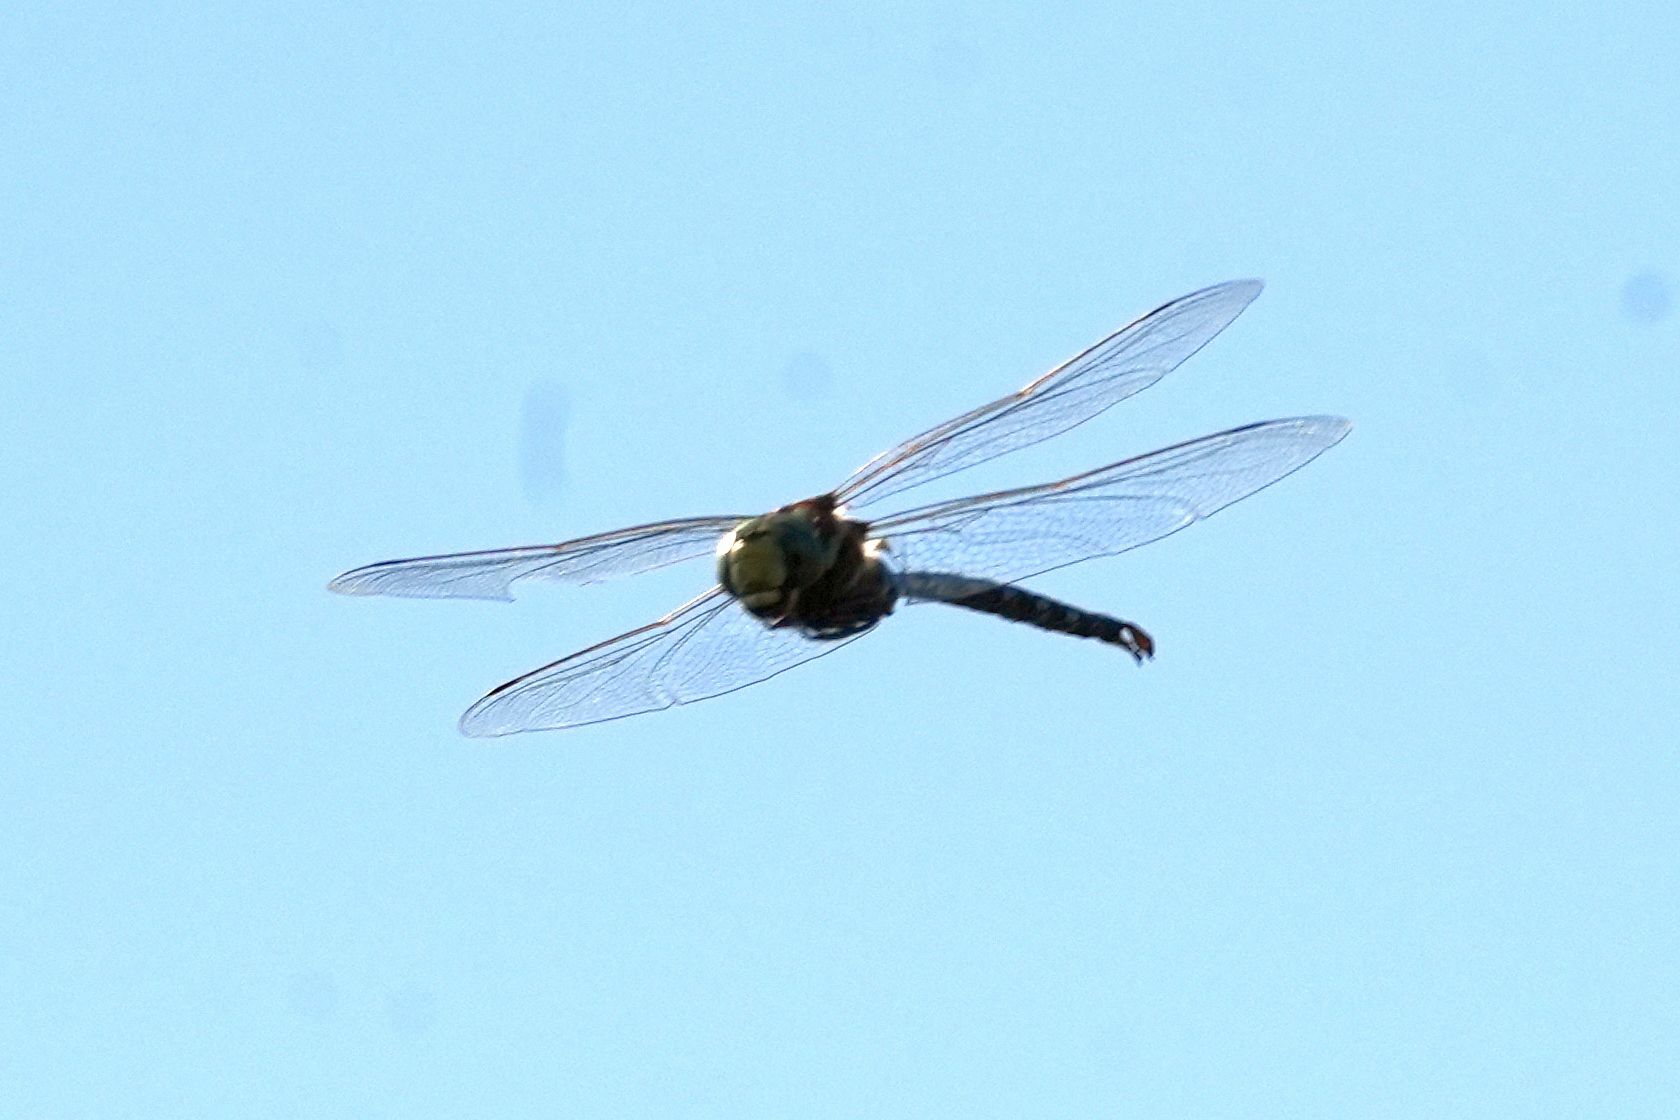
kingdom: Animalia
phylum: Arthropoda
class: Insecta
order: Odonata
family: Aeshnidae
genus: Aeshna
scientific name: Aeshna constricta
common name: Lance-tipped darner
